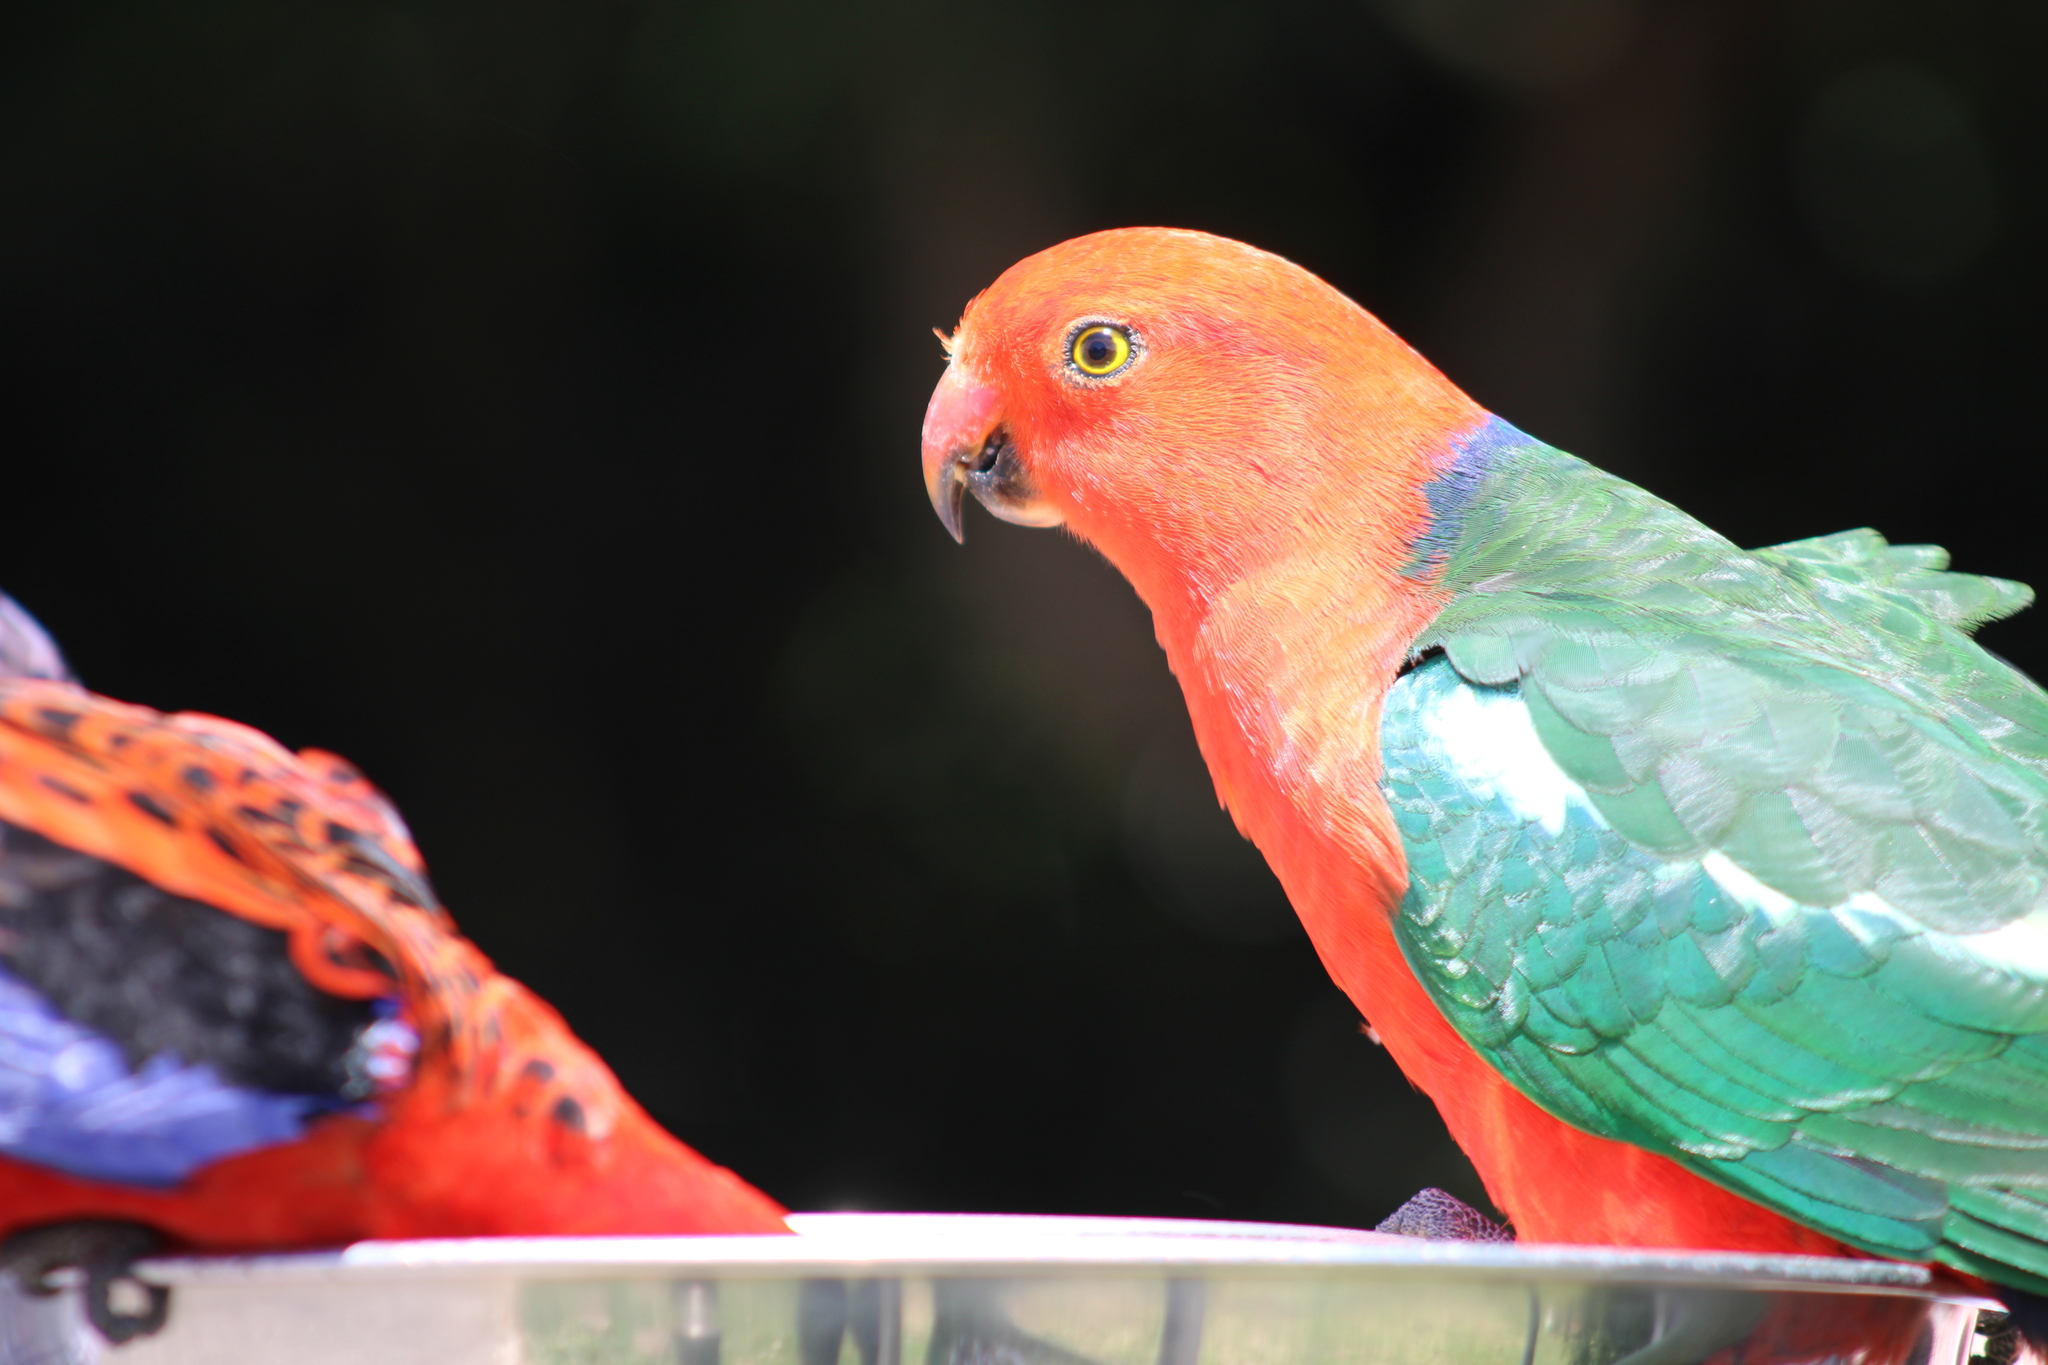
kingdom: Animalia
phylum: Chordata
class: Aves
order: Psittaciformes
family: Psittacidae
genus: Alisterus
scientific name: Alisterus scapularis
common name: Australian king parrot
